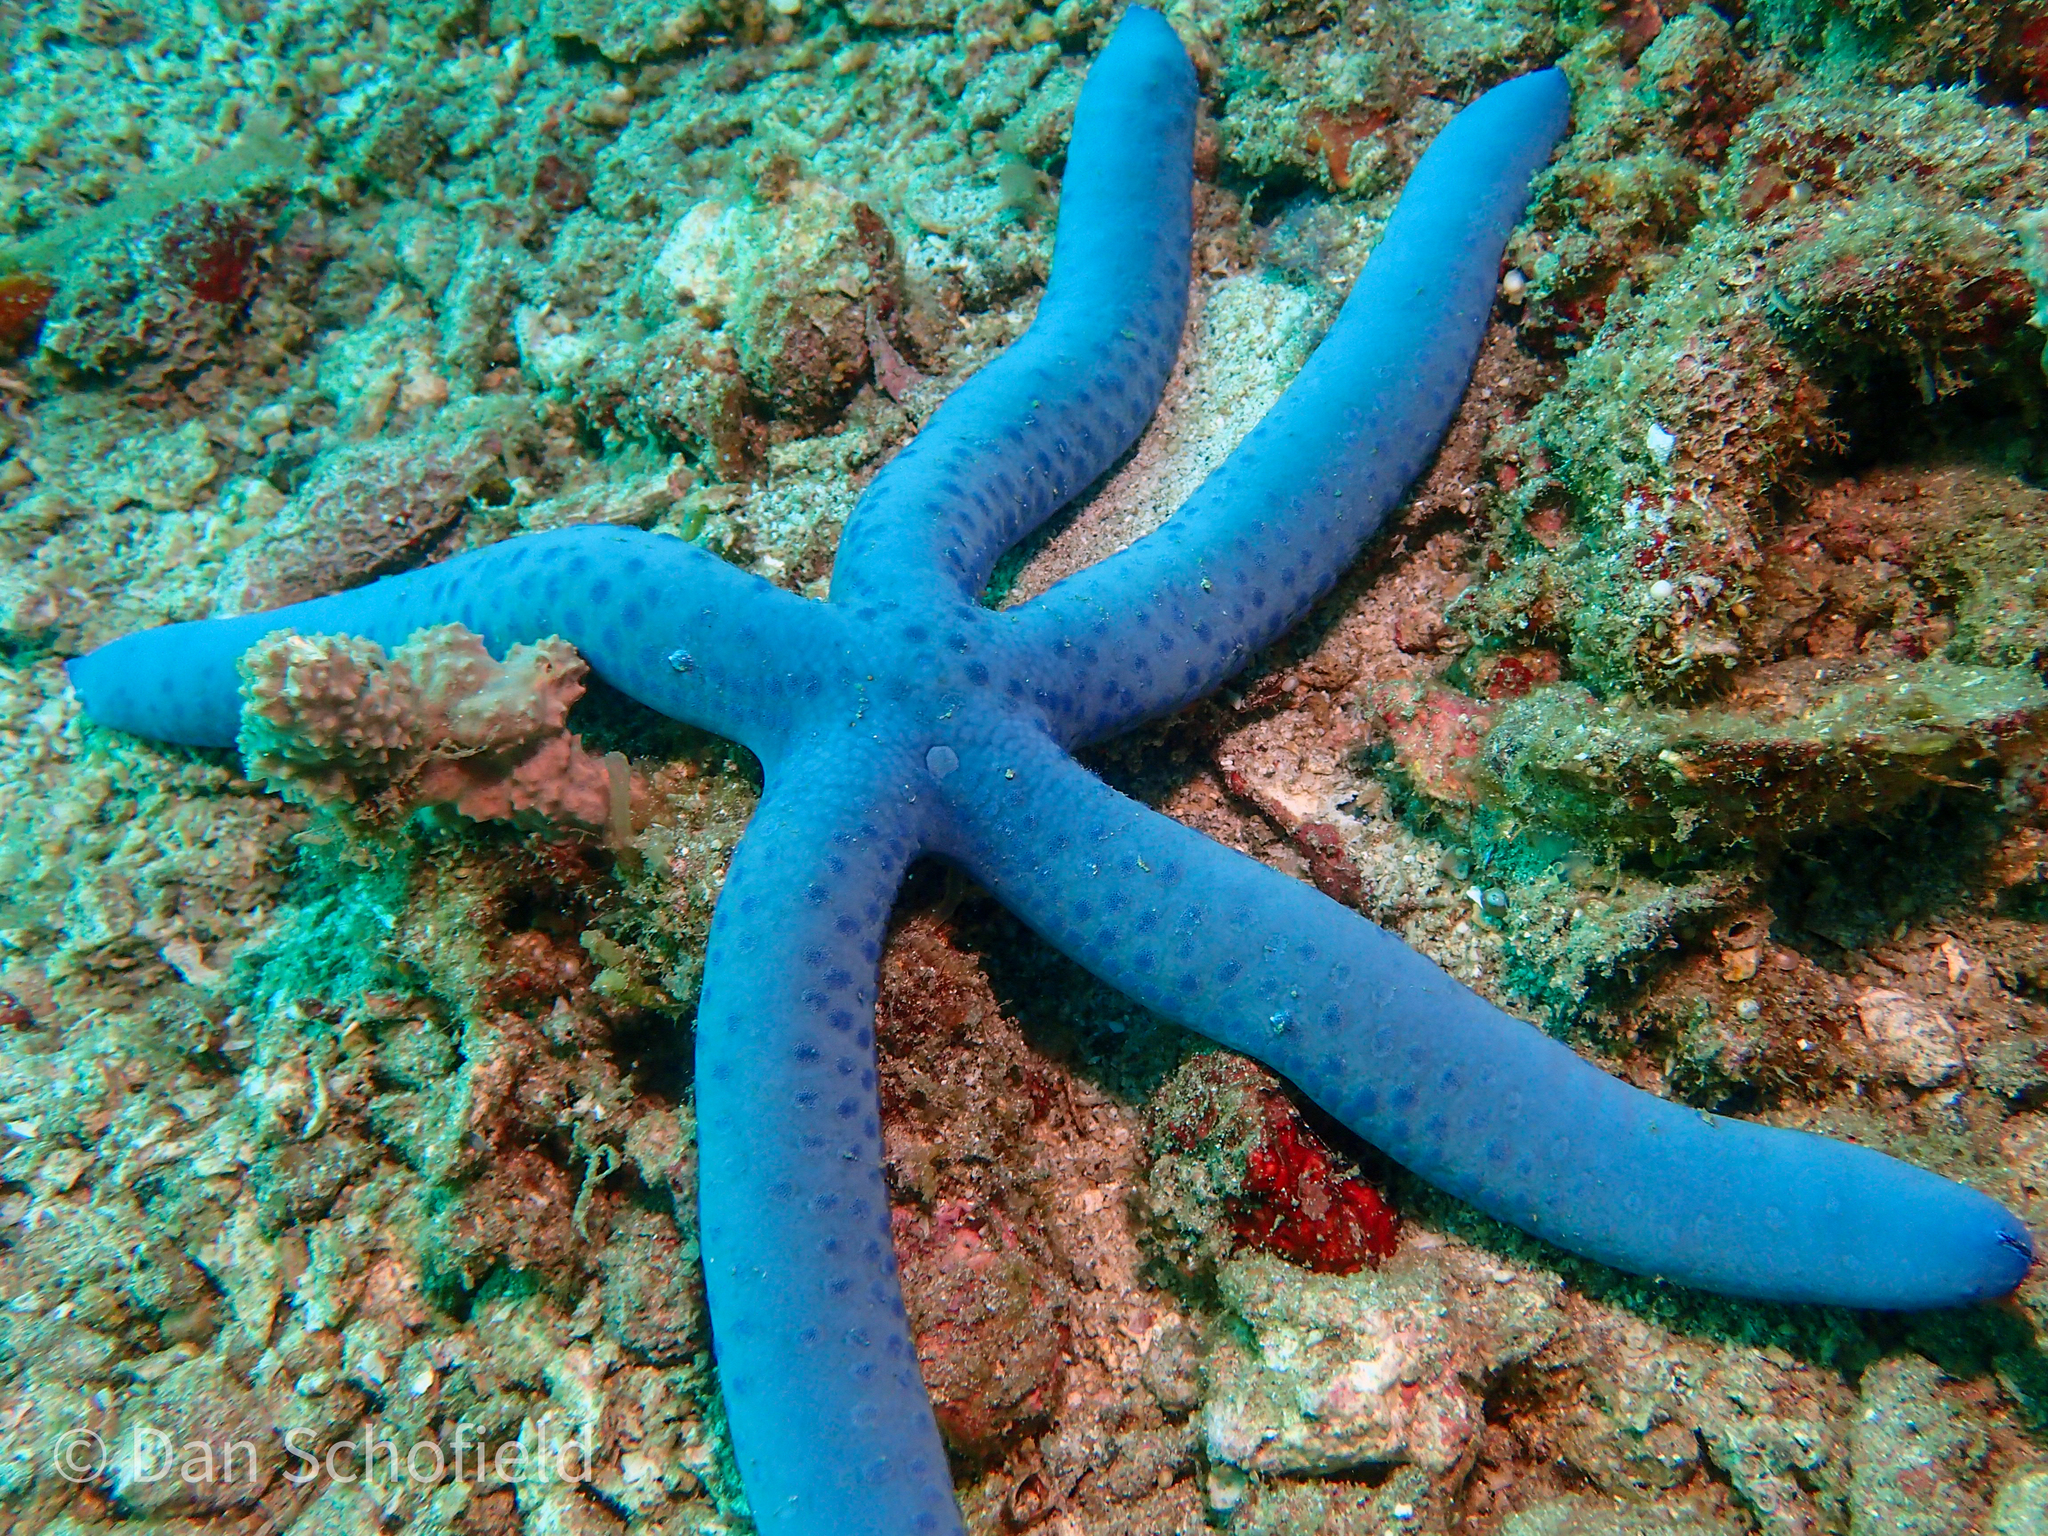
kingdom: Animalia
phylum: Echinodermata
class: Asteroidea
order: Valvatida
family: Ophidiasteridae
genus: Linckia
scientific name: Linckia laevigata
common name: Azure sea star
